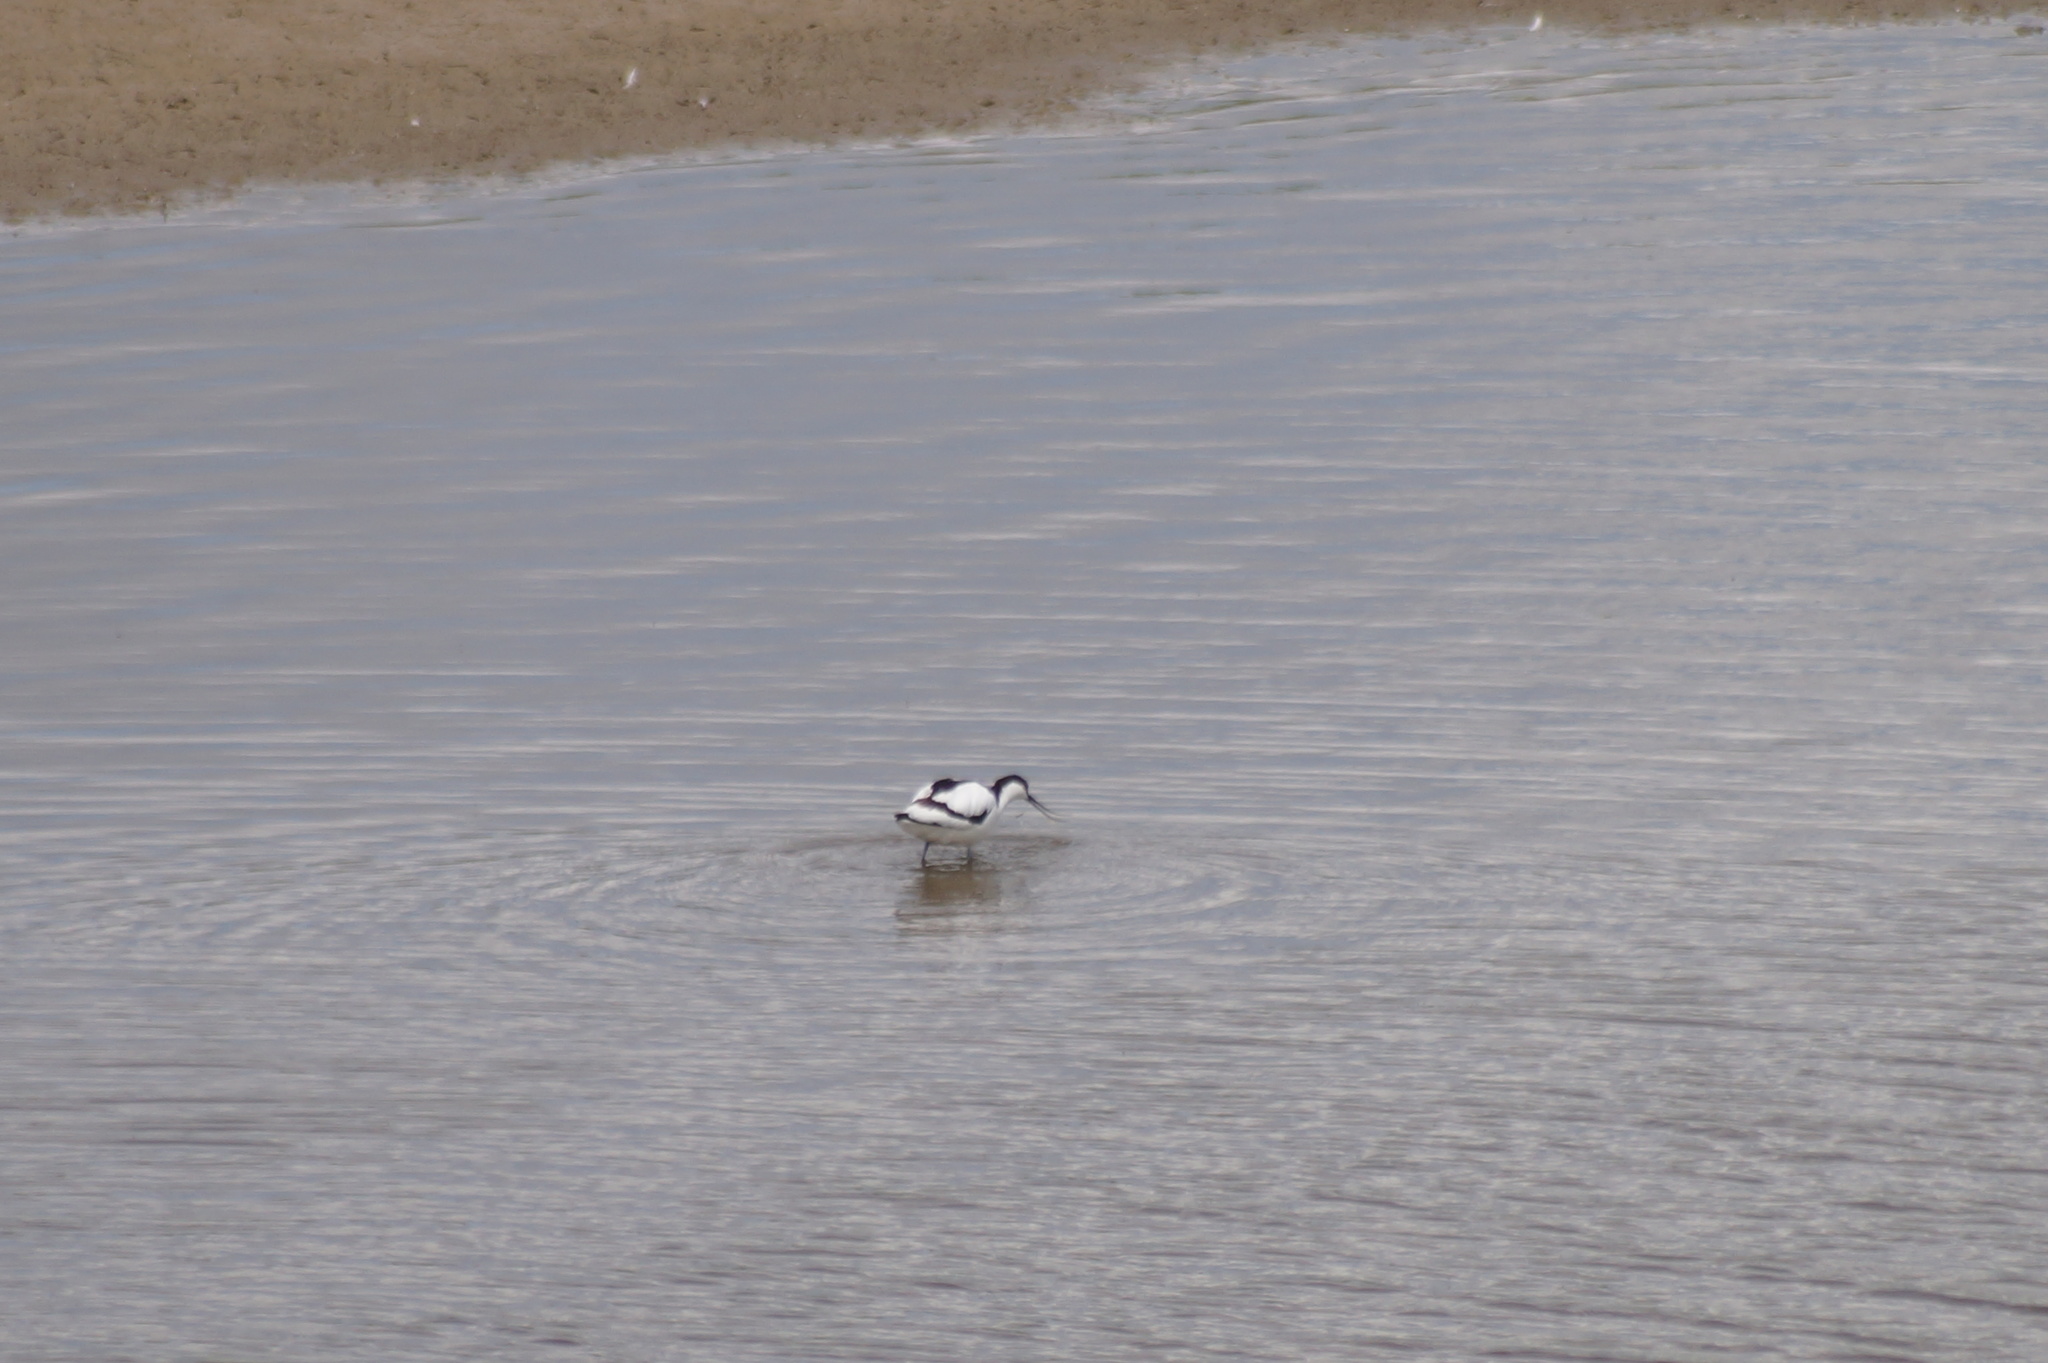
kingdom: Animalia
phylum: Chordata
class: Aves
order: Charadriiformes
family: Recurvirostridae
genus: Recurvirostra
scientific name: Recurvirostra avosetta
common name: Pied avocet
